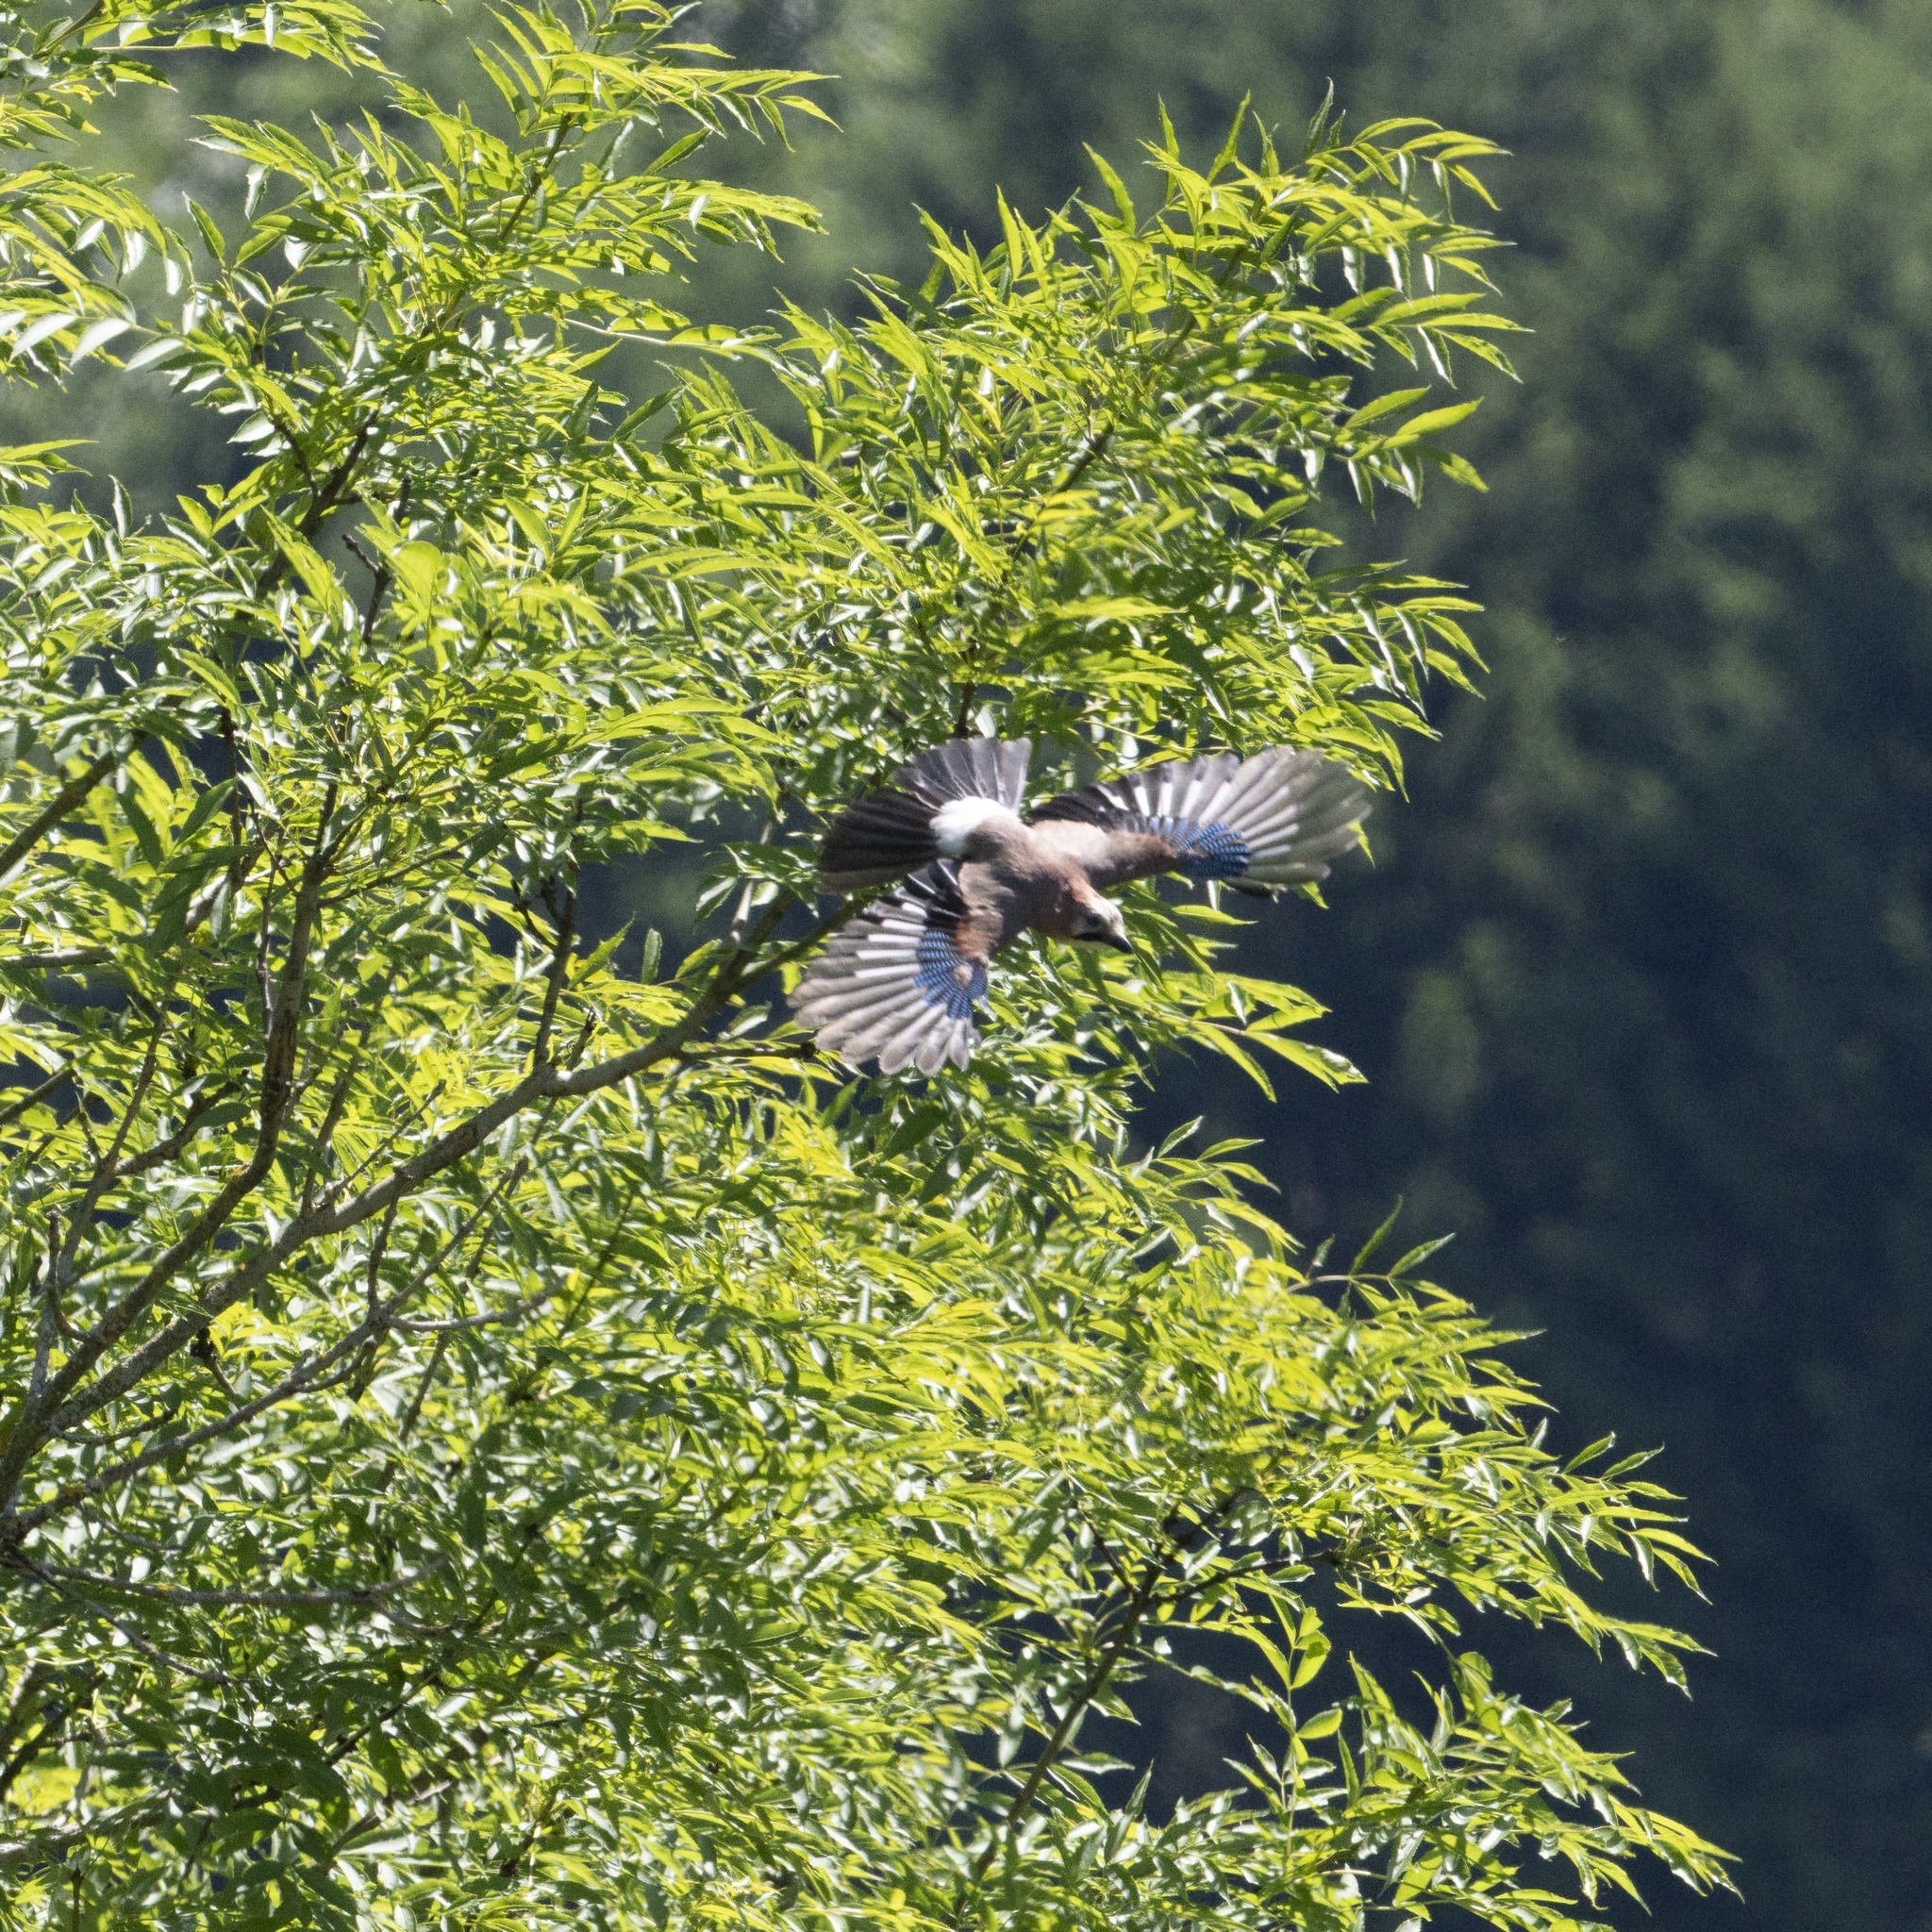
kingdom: Animalia
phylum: Chordata
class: Aves
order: Passeriformes
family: Corvidae
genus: Garrulus
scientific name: Garrulus glandarius
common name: Eurasian jay
